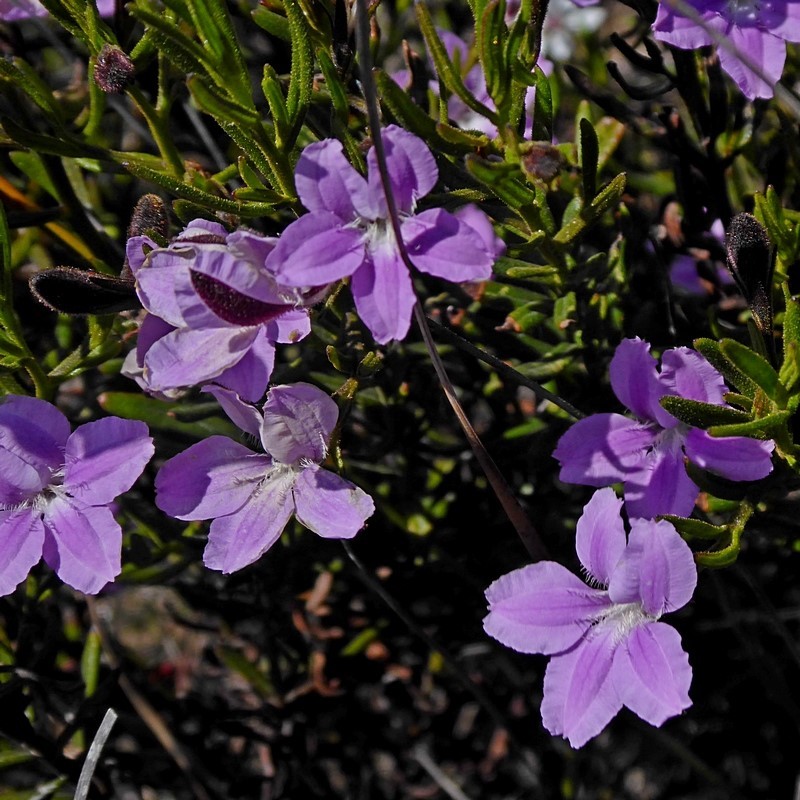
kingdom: Plantae
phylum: Tracheophyta
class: Magnoliopsida
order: Asterales
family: Goodeniaceae
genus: Goodenia
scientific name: Goodenia barbata
